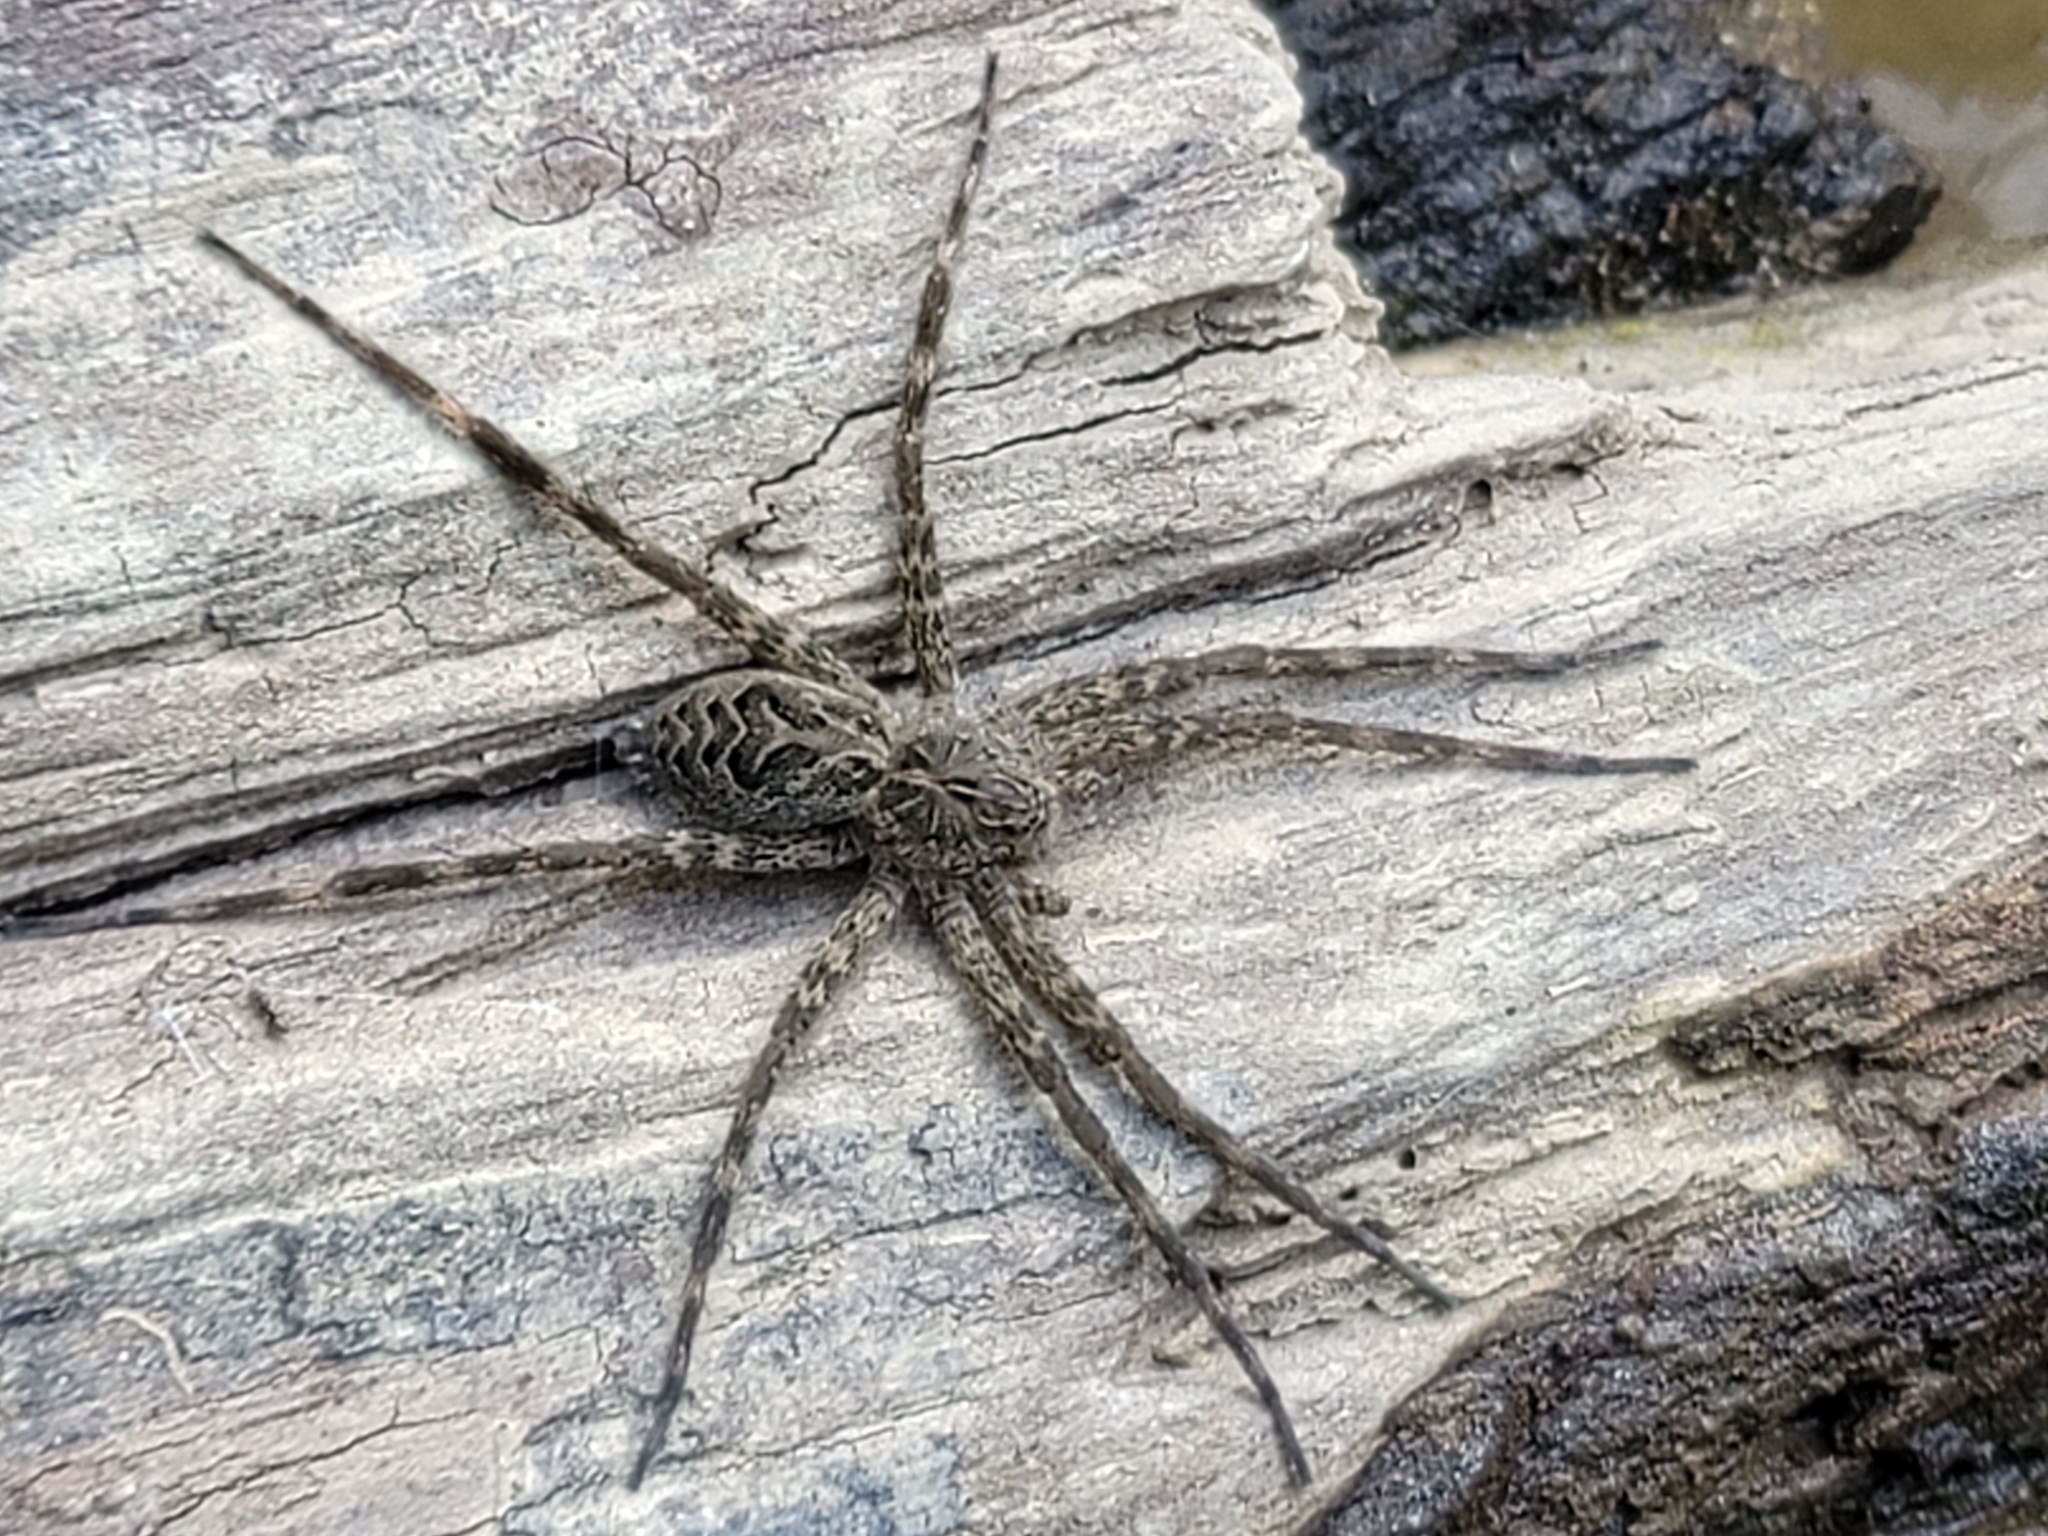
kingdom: Animalia
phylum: Arthropoda
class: Arachnida
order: Araneae
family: Pisauridae
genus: Dolomedes
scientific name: Dolomedes scriptus
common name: Striped fishing spider
